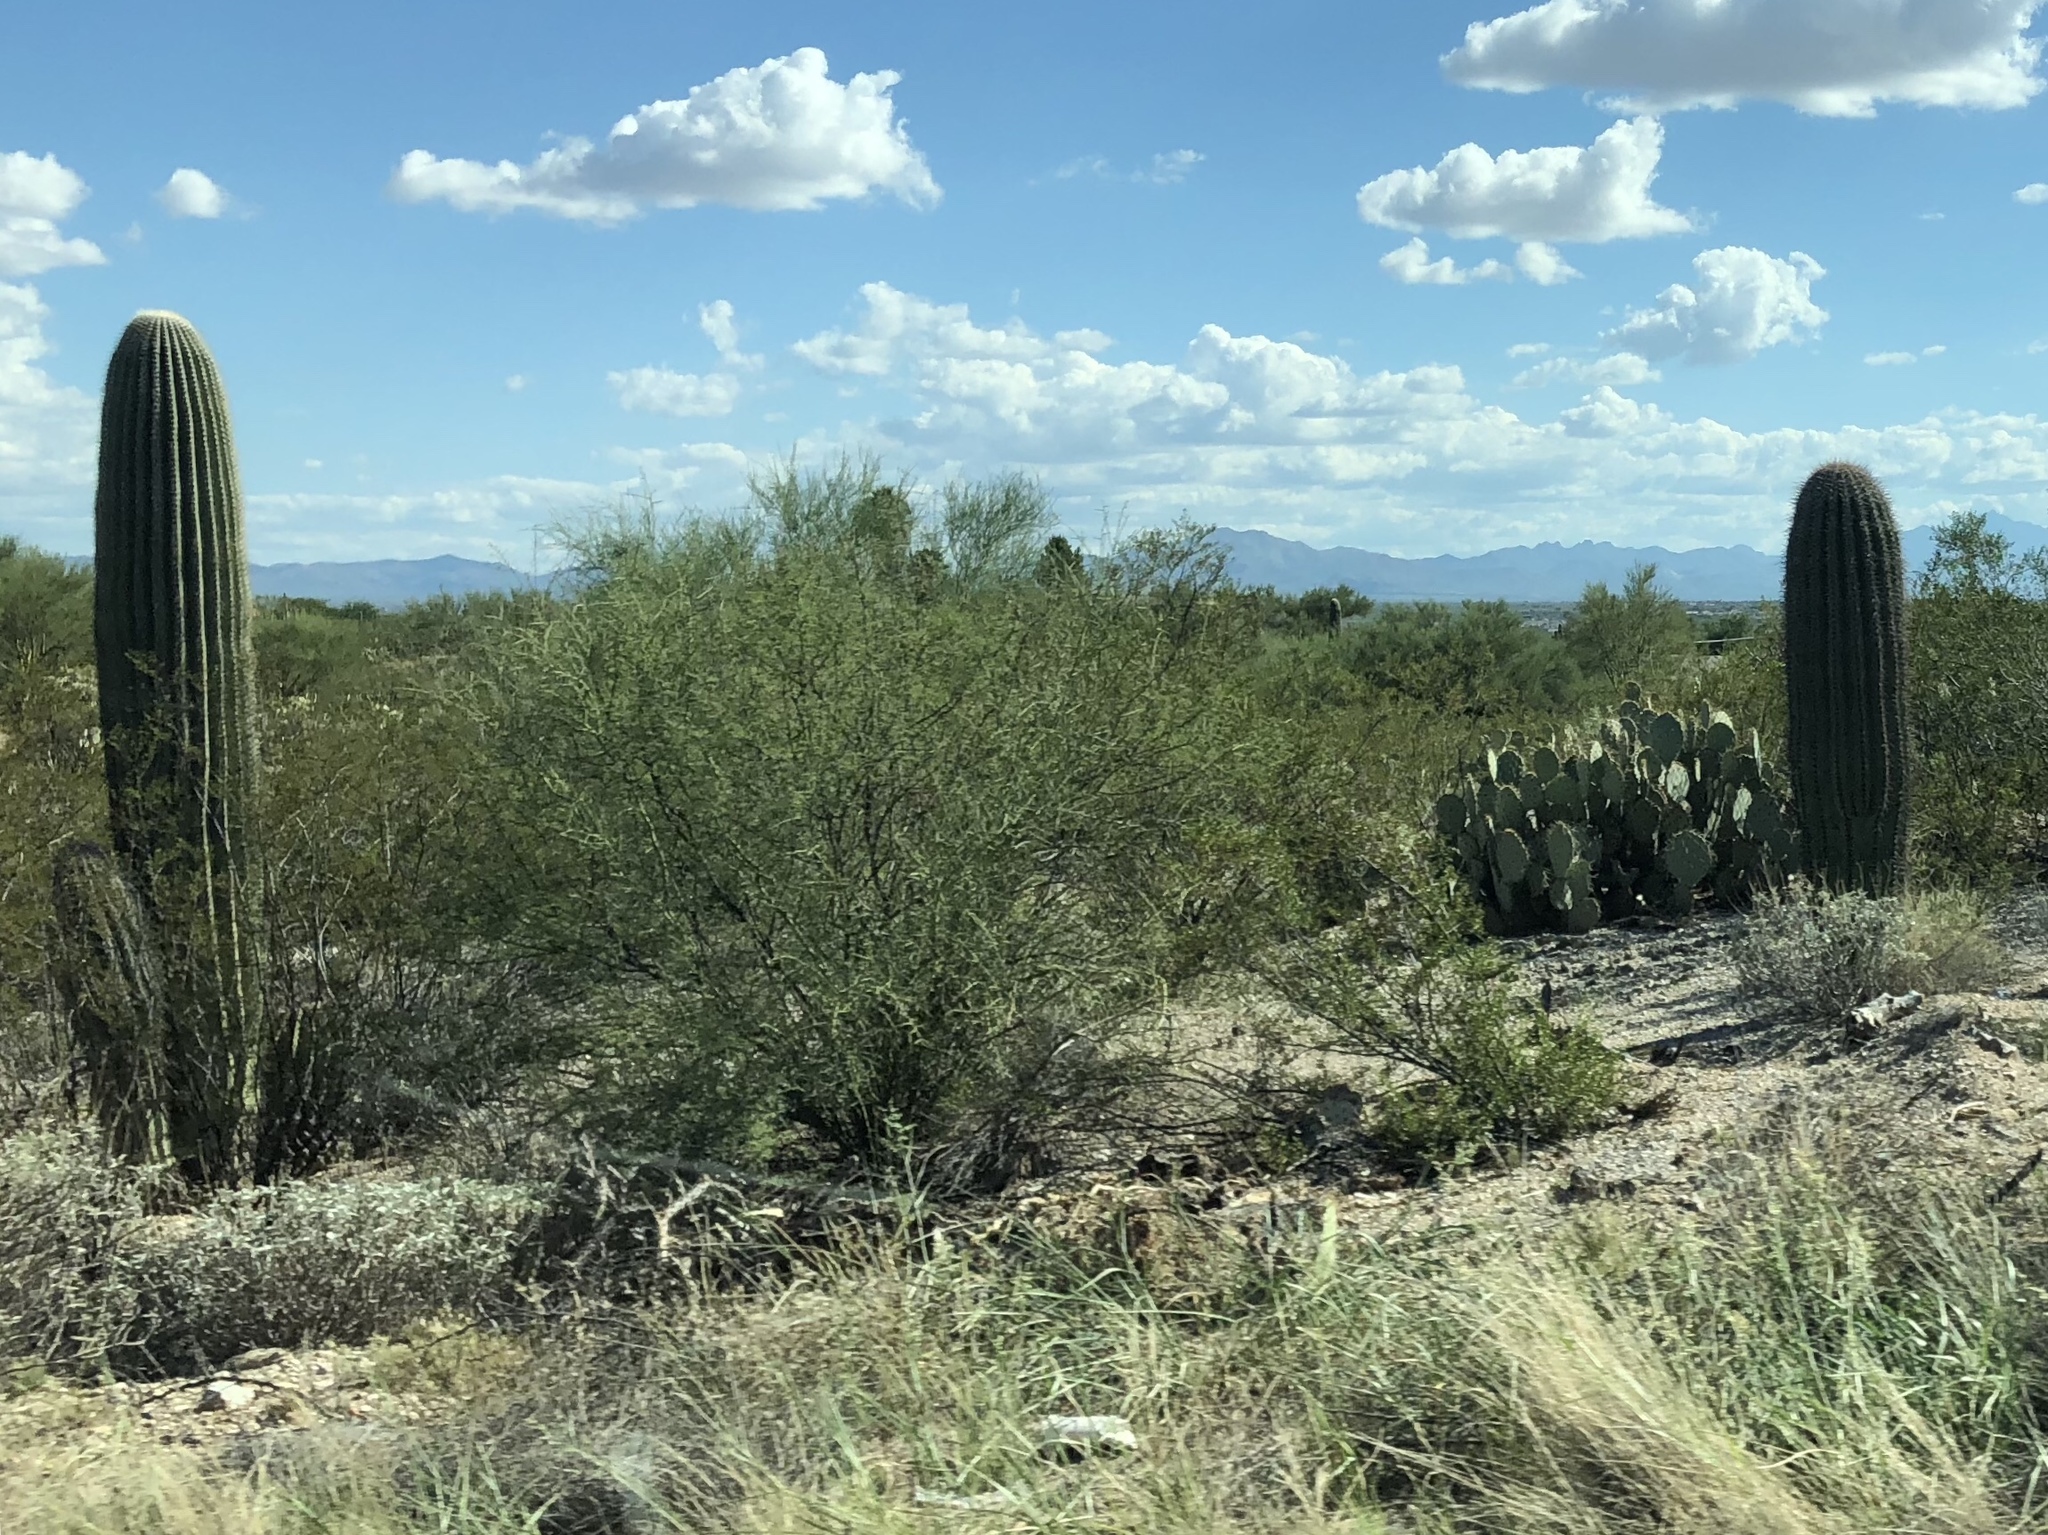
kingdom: Plantae
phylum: Tracheophyta
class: Magnoliopsida
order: Caryophyllales
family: Cactaceae
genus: Carnegiea
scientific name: Carnegiea gigantea
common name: Saguaro
